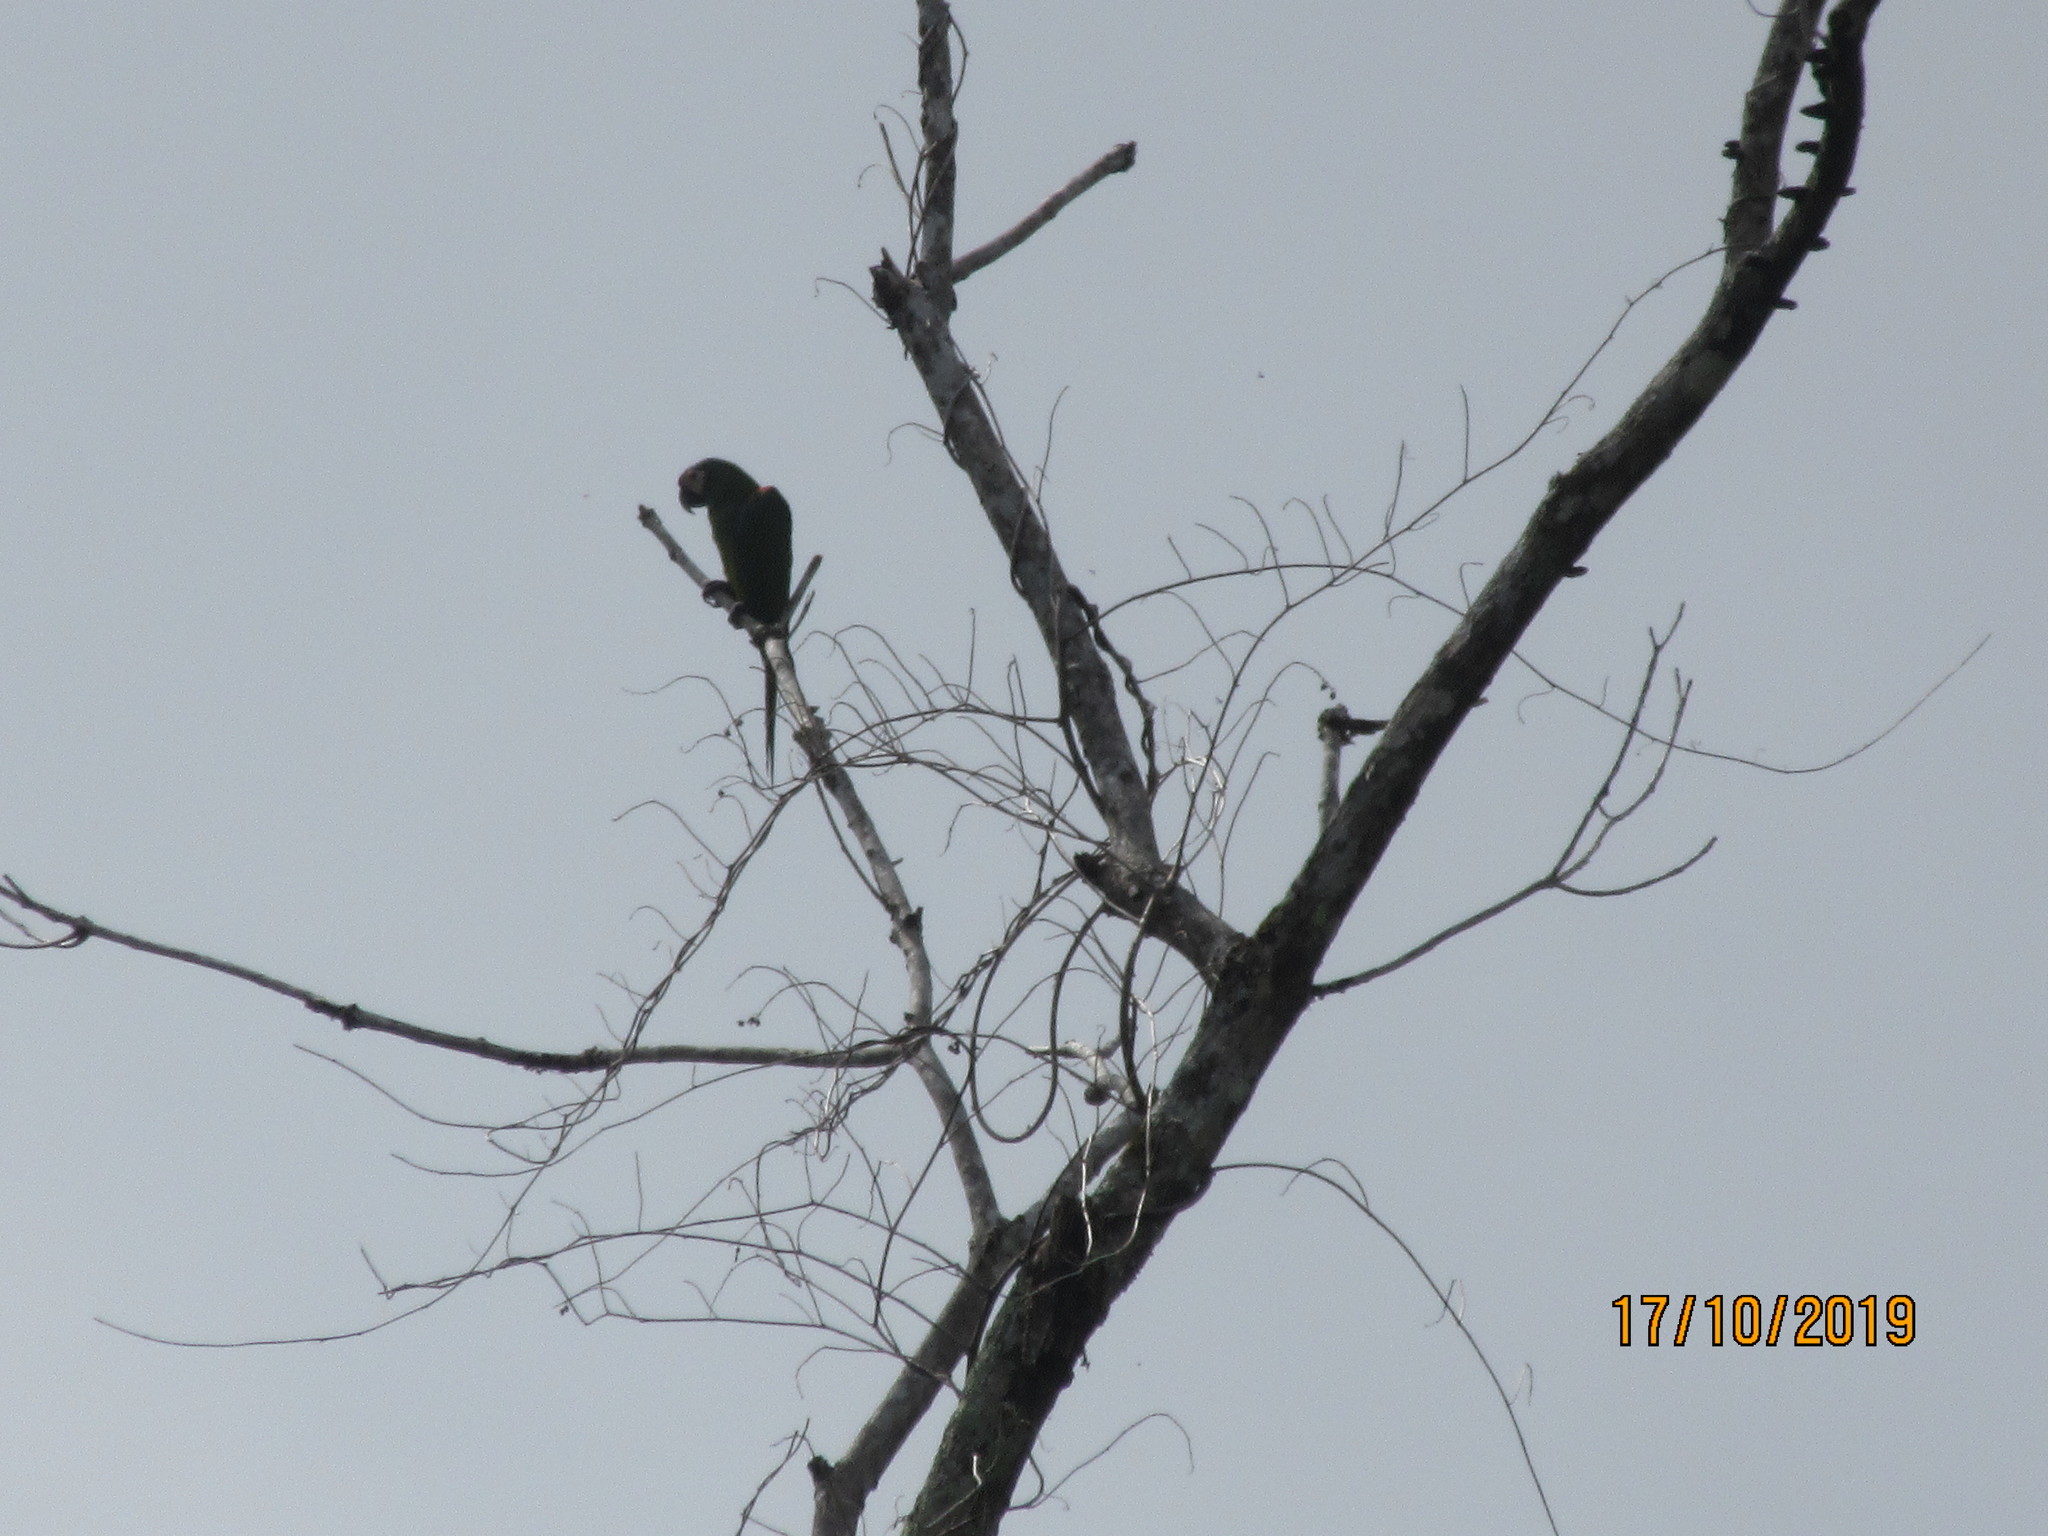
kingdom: Animalia
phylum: Chordata
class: Aves
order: Psittaciformes
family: Psittacidae
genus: Ara
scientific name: Ara severus
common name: Chestnut-fronted macaw
